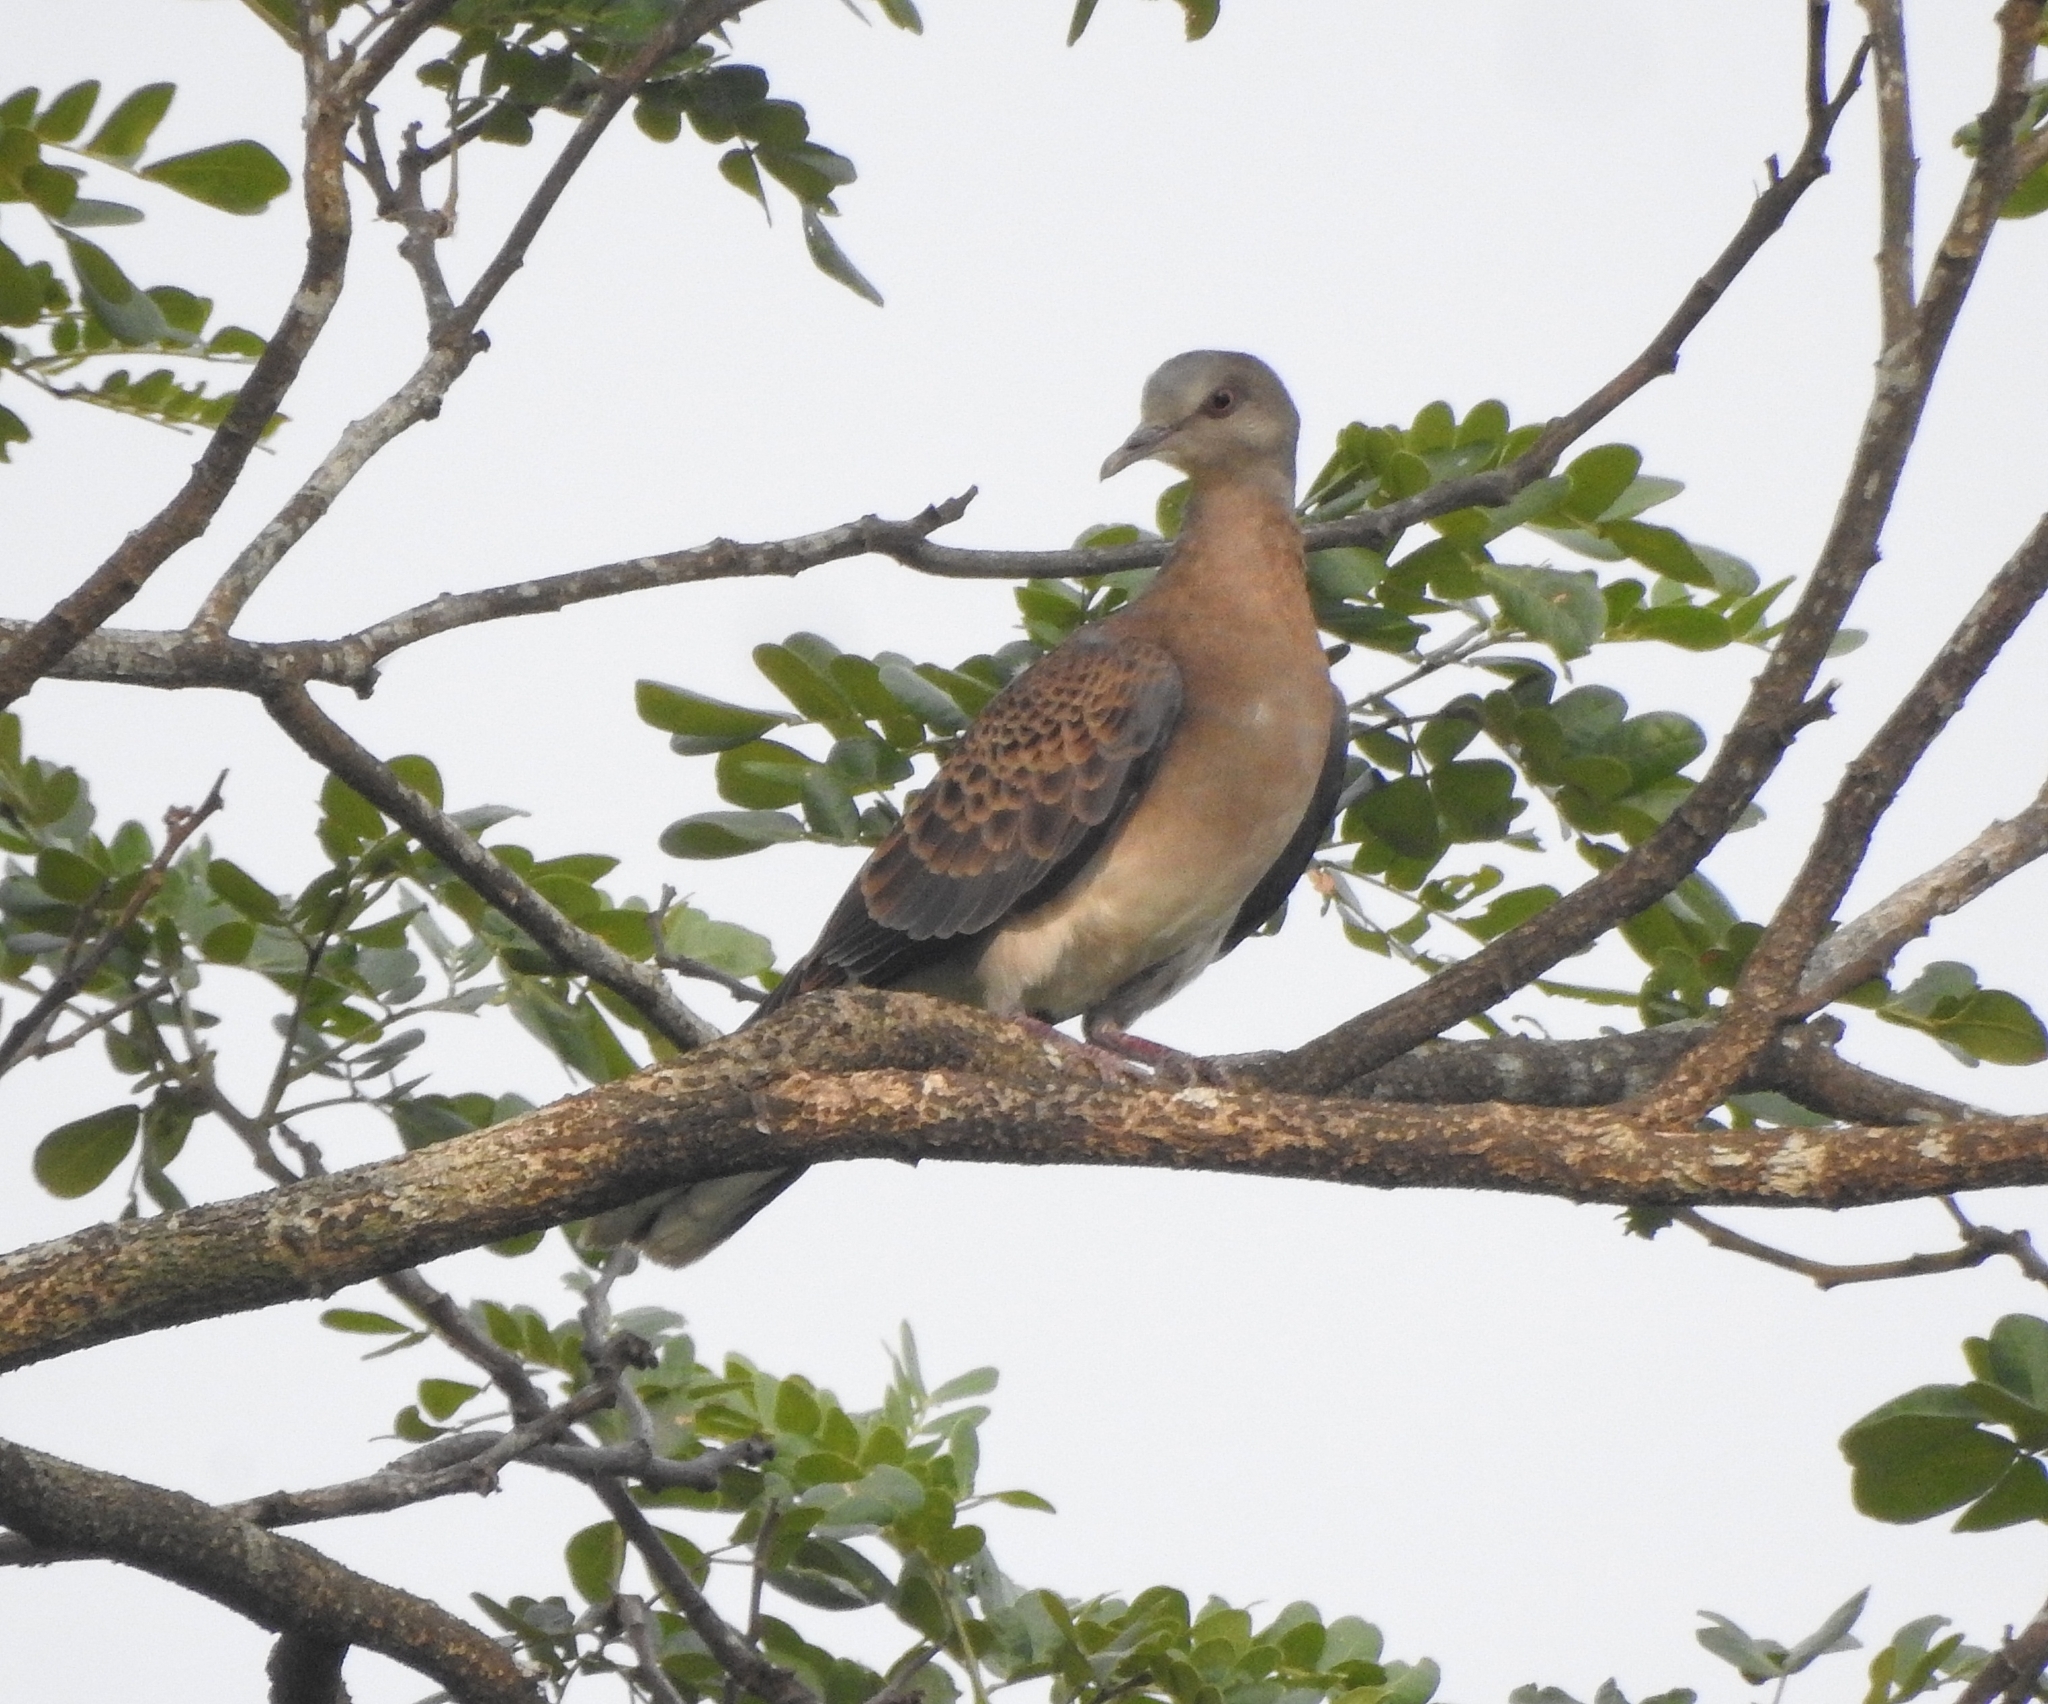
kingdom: Animalia
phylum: Chordata
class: Aves
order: Columbiformes
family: Columbidae
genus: Streptopelia
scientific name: Streptopelia orientalis
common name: Oriental turtle dove
